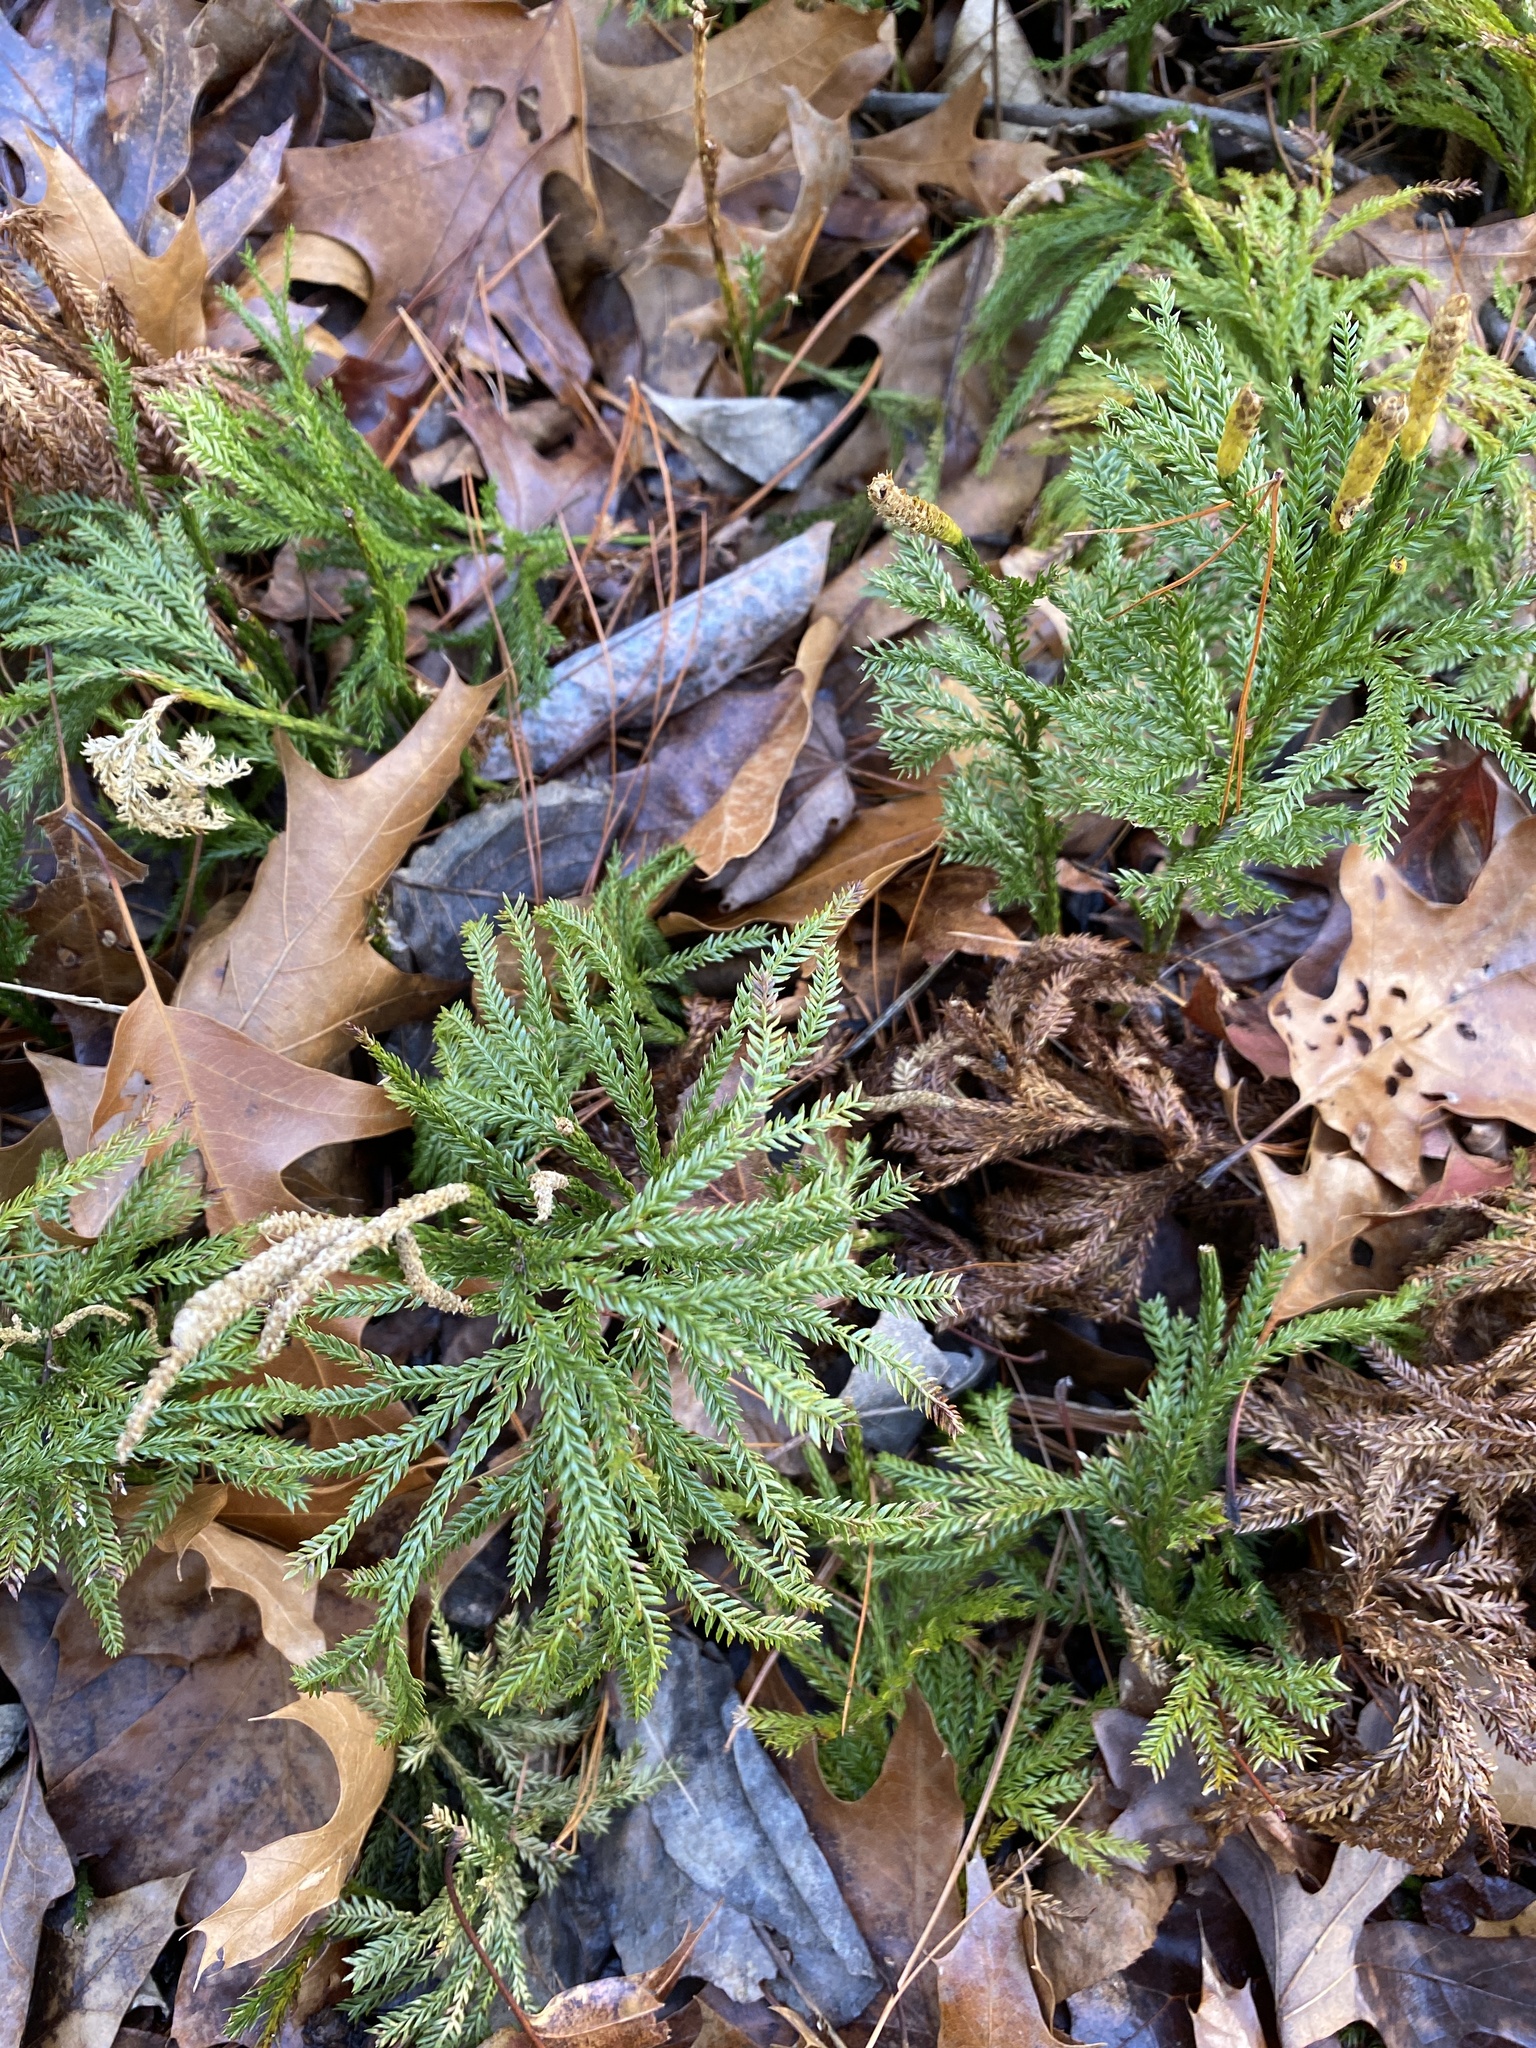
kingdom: Plantae
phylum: Tracheophyta
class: Lycopodiopsida
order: Lycopodiales
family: Lycopodiaceae
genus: Dendrolycopodium
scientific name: Dendrolycopodium obscurum
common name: Common ground-pine
